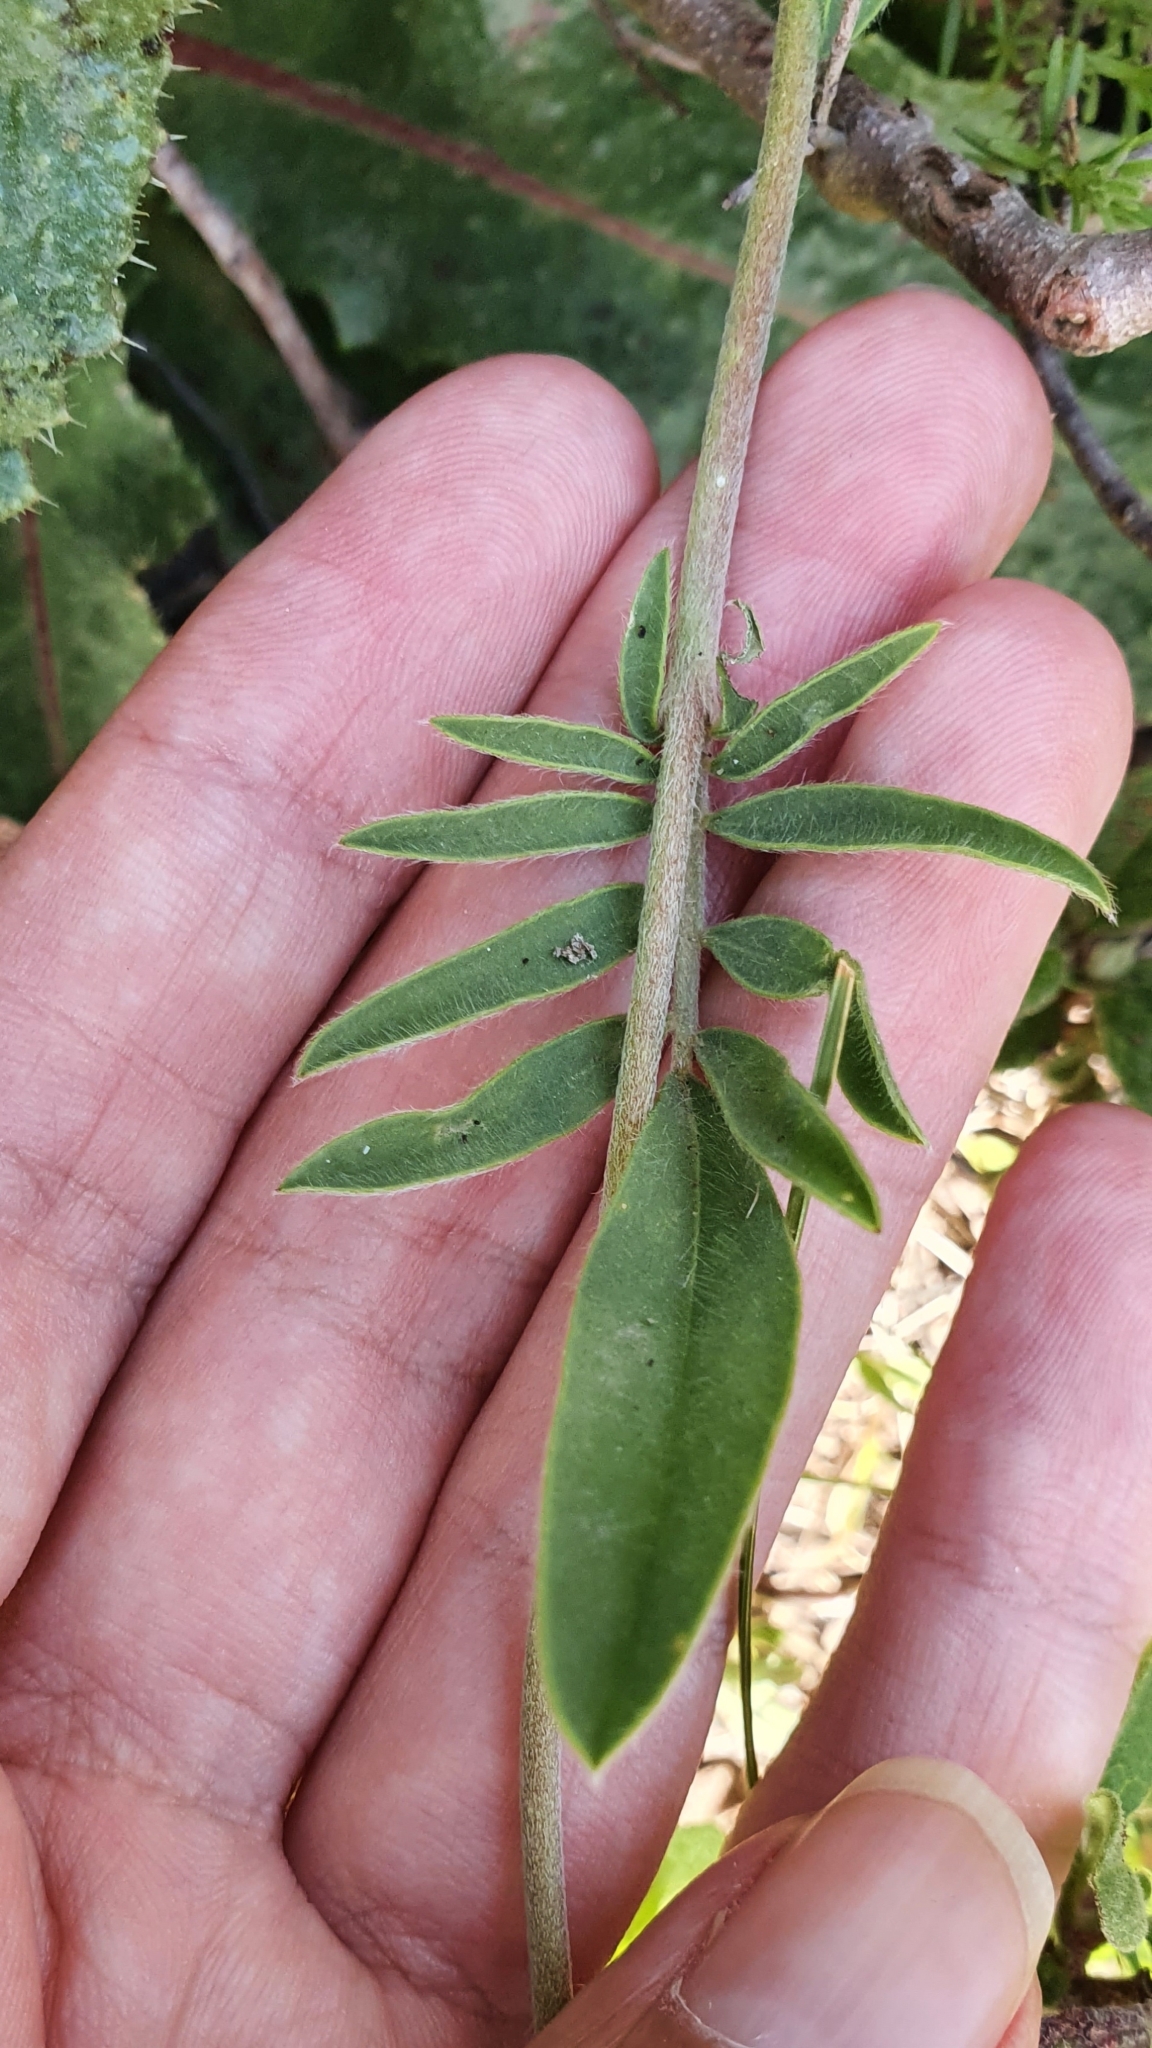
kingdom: Plantae
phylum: Tracheophyta
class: Magnoliopsida
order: Fabales
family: Fabaceae
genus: Anthyllis
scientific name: Anthyllis vulneraria
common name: Kidney vetch
